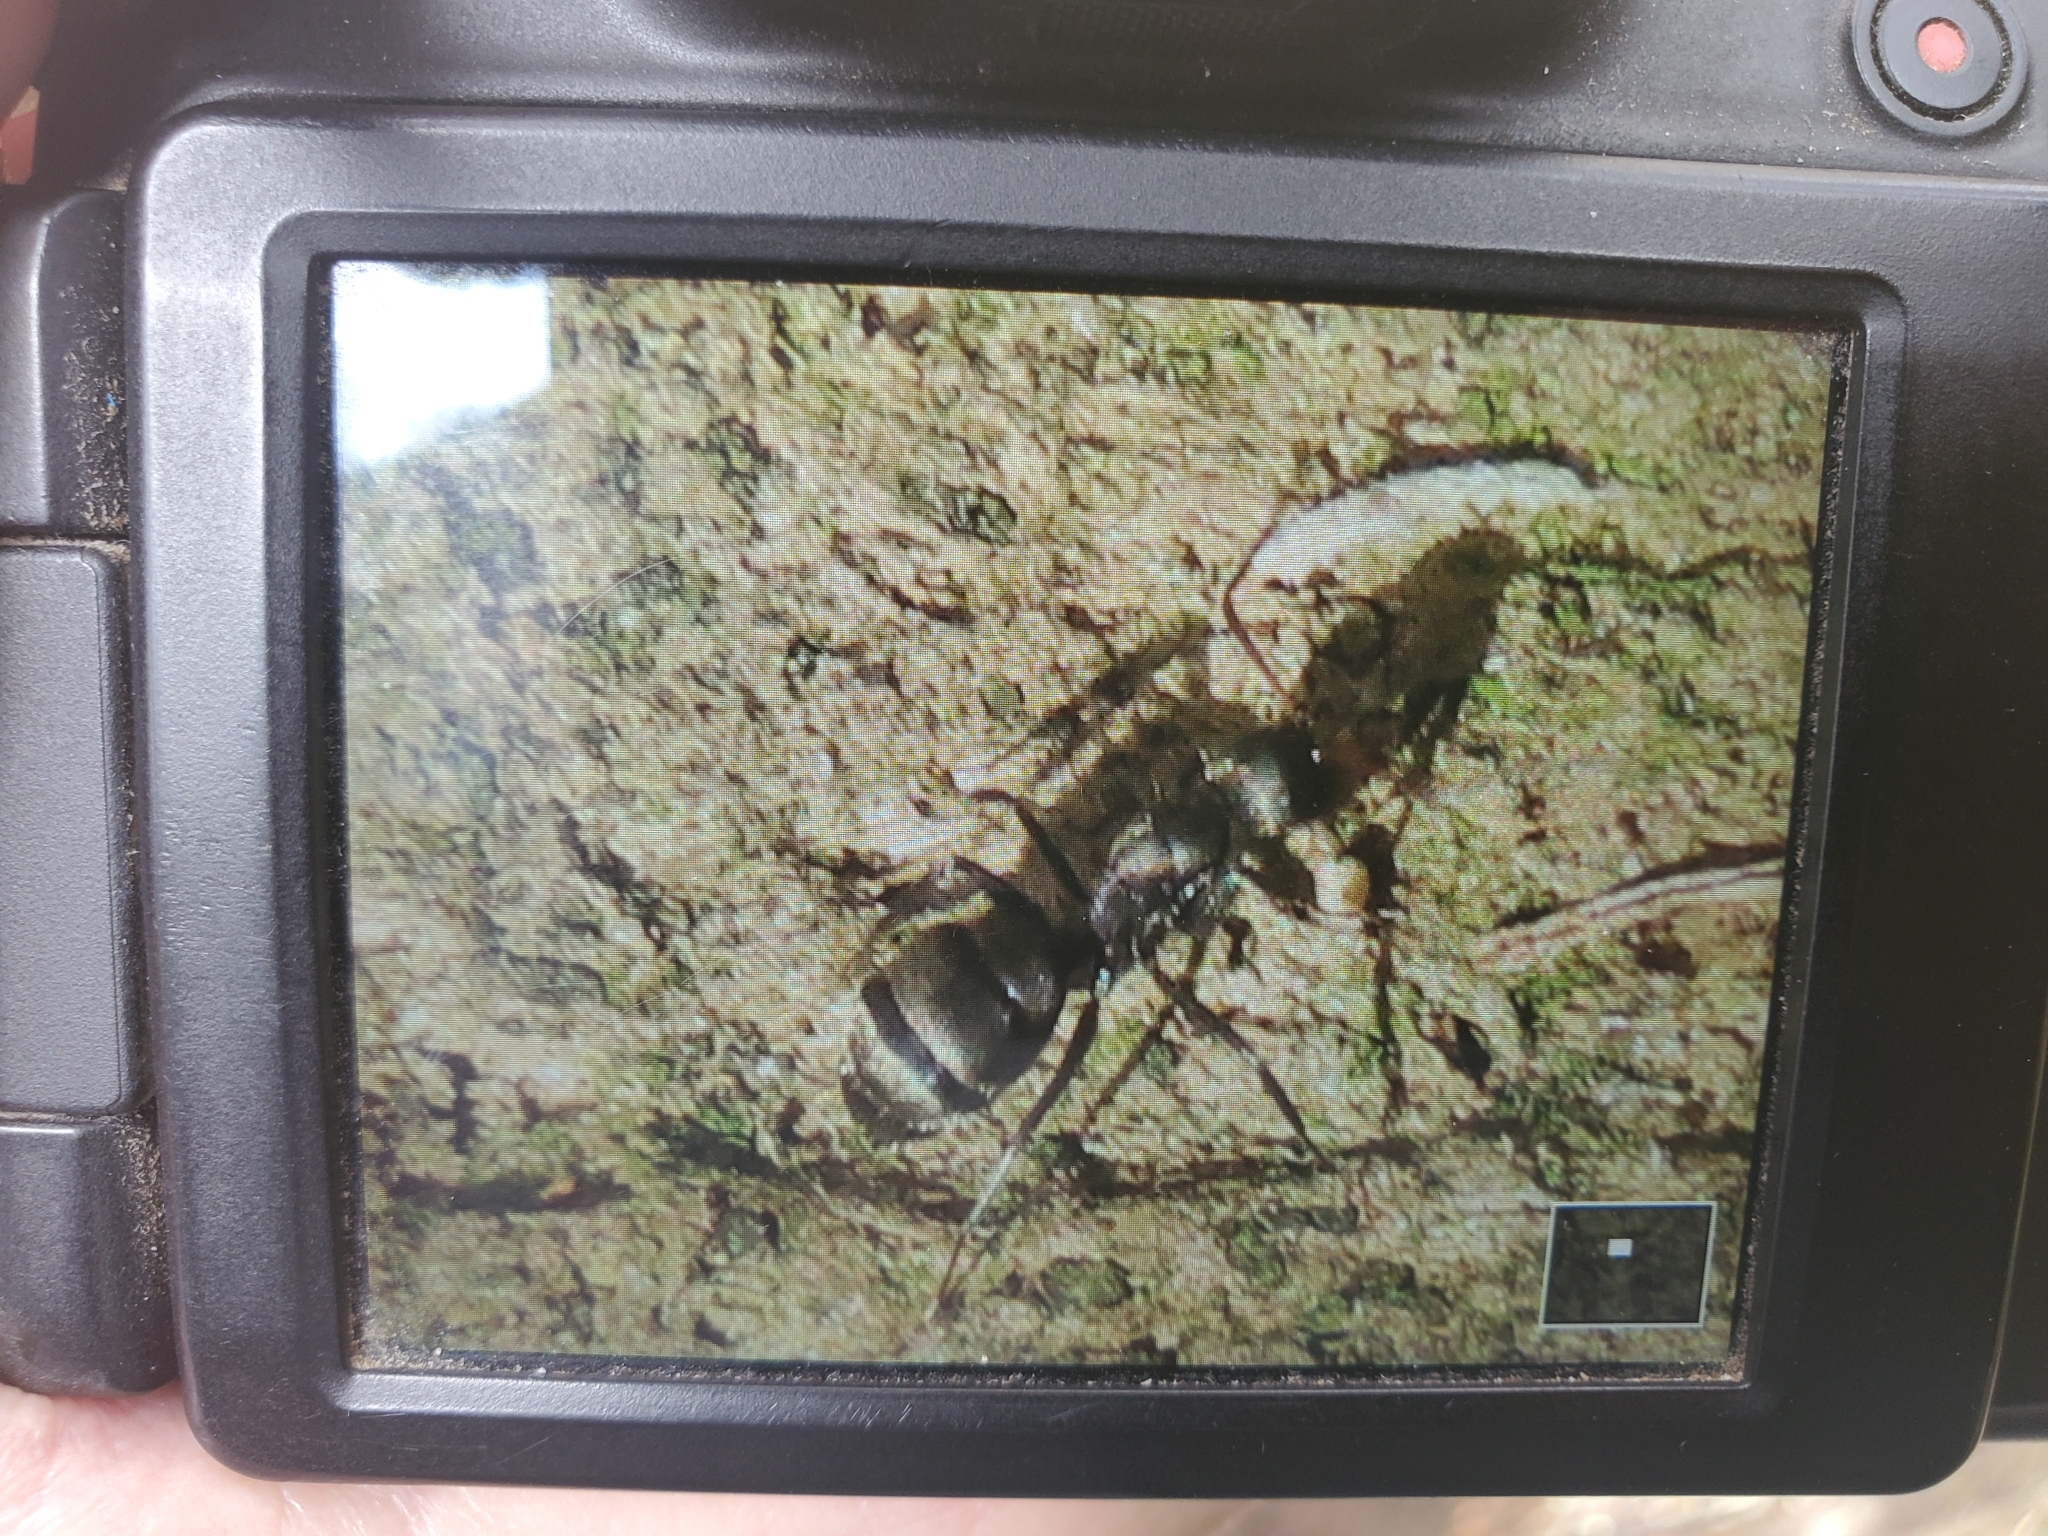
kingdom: Animalia
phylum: Arthropoda
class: Insecta
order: Hymenoptera
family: Formicidae
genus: Camponotus
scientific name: Camponotus novogranadensis
